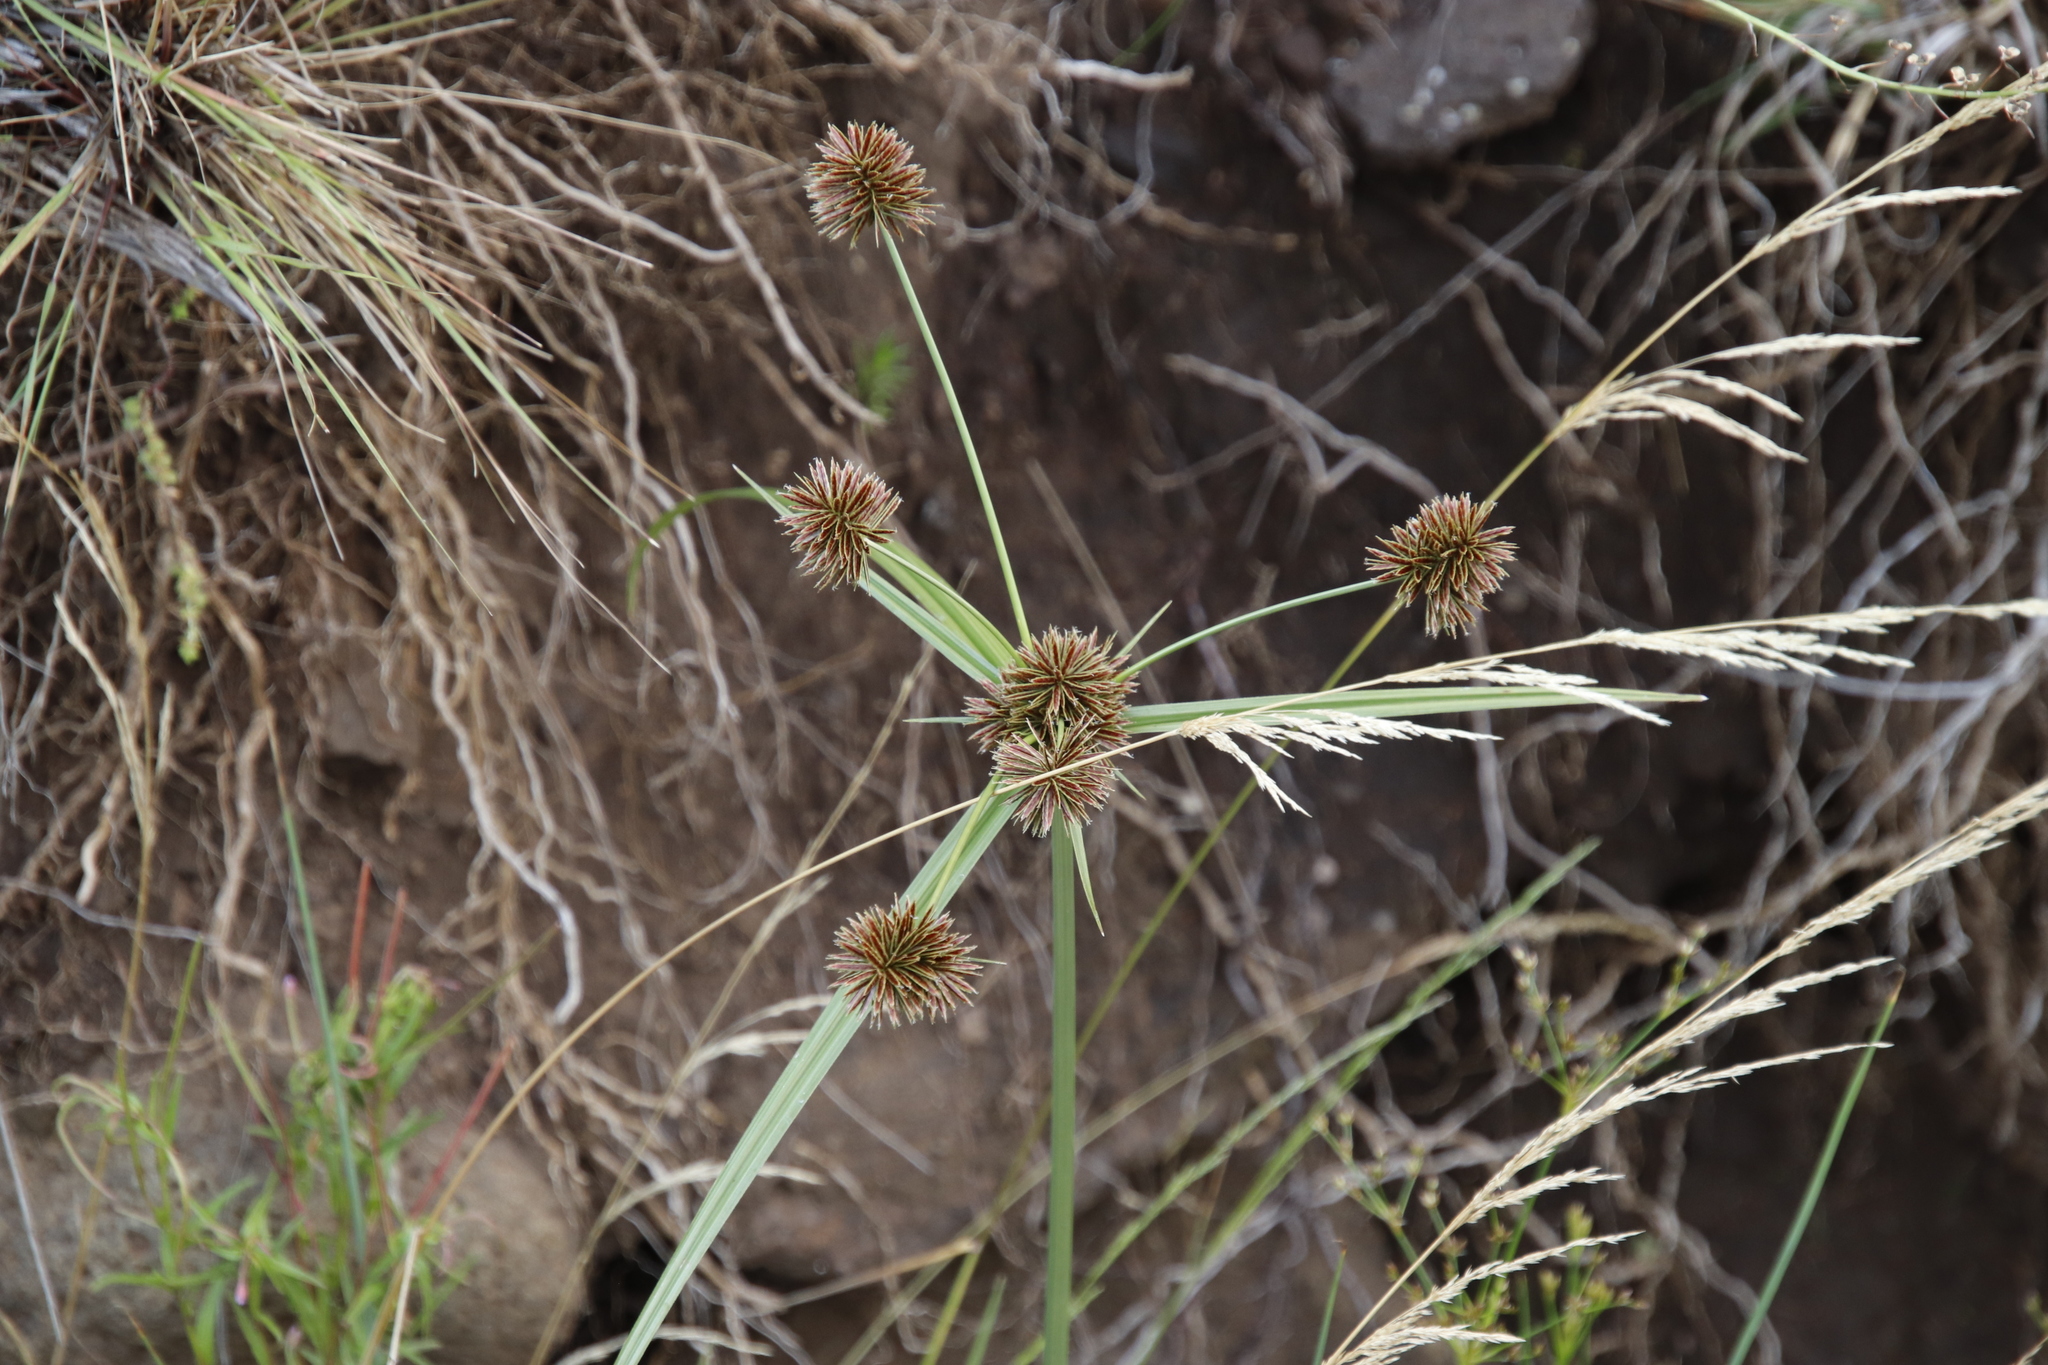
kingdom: Plantae
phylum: Tracheophyta
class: Liliopsida
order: Poales
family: Cyperaceae
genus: Cyperus
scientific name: Cyperus congestus
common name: Dense flat sedge
